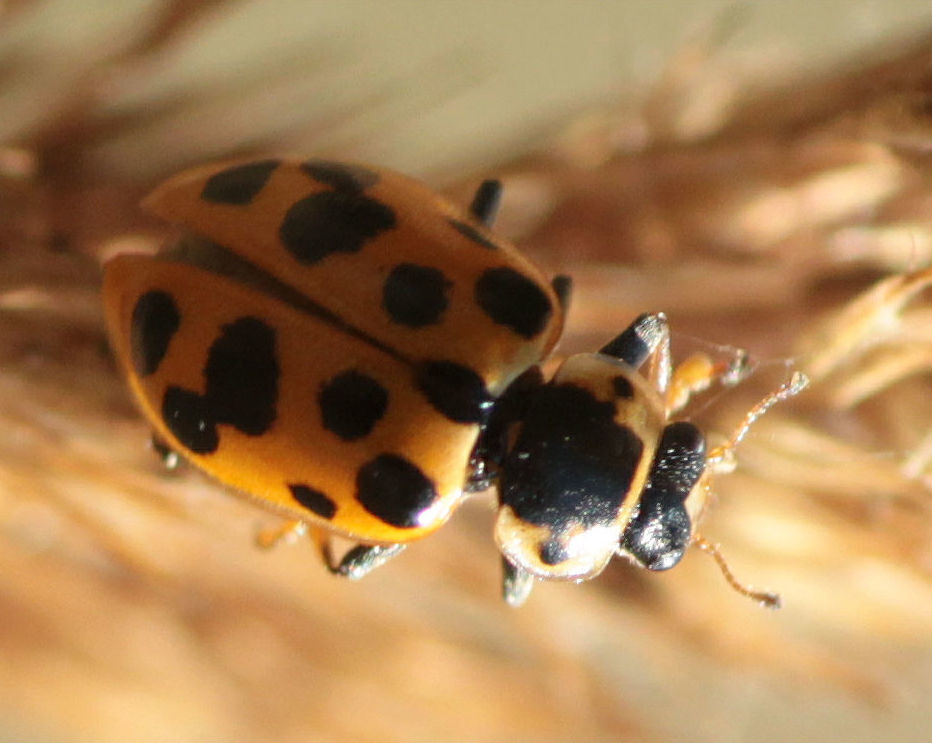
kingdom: Animalia
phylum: Arthropoda
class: Insecta
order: Coleoptera
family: Coccinellidae
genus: Hippodamia
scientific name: Hippodamia tredecimpunctata
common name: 13-spot ladybird
